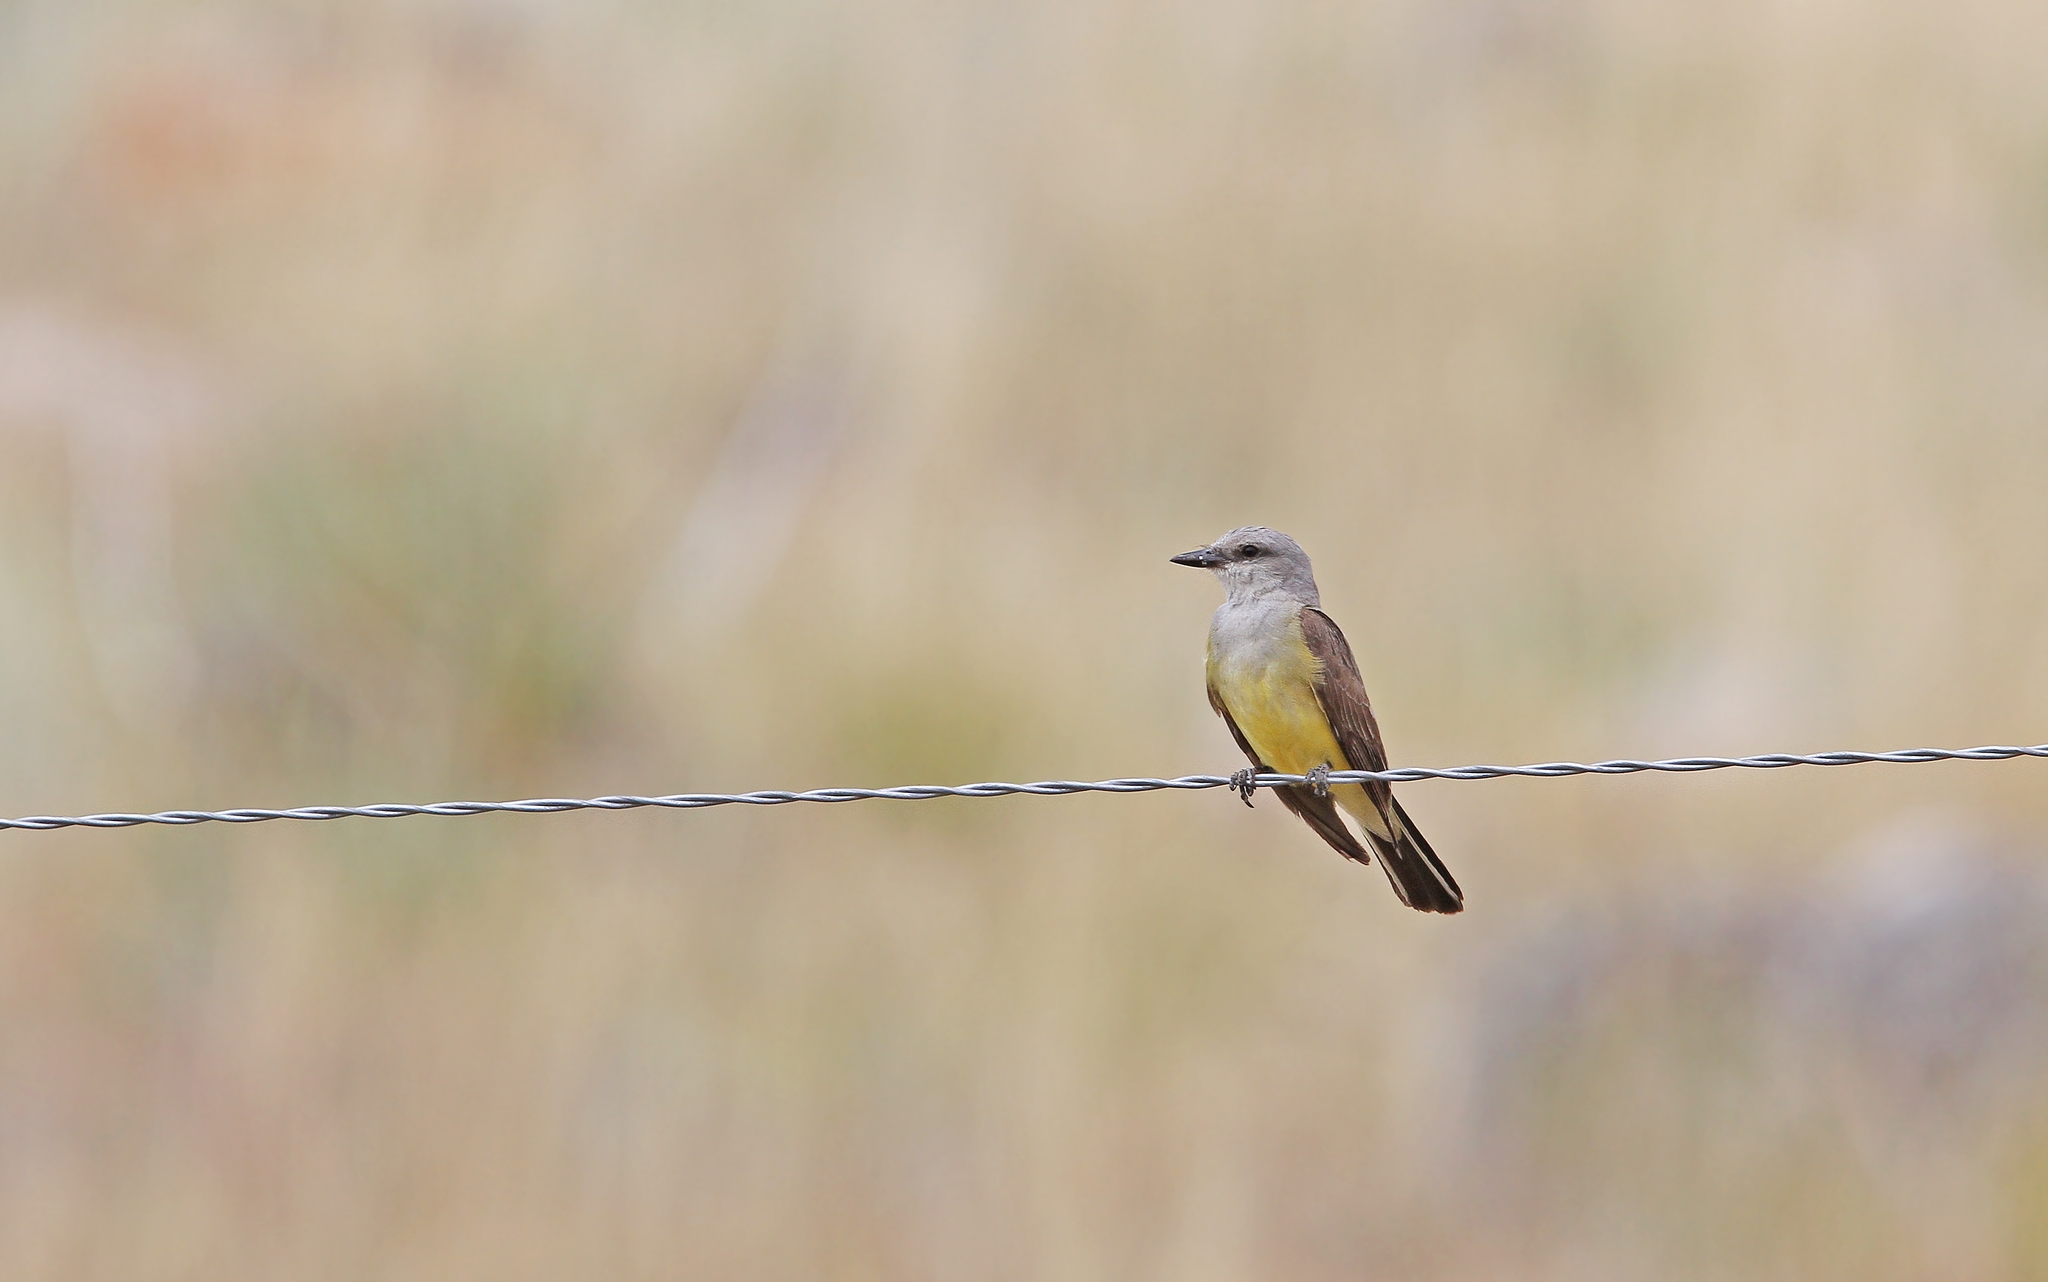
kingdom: Animalia
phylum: Chordata
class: Aves
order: Passeriformes
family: Tyrannidae
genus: Tyrannus
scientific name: Tyrannus verticalis
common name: Western kingbird
